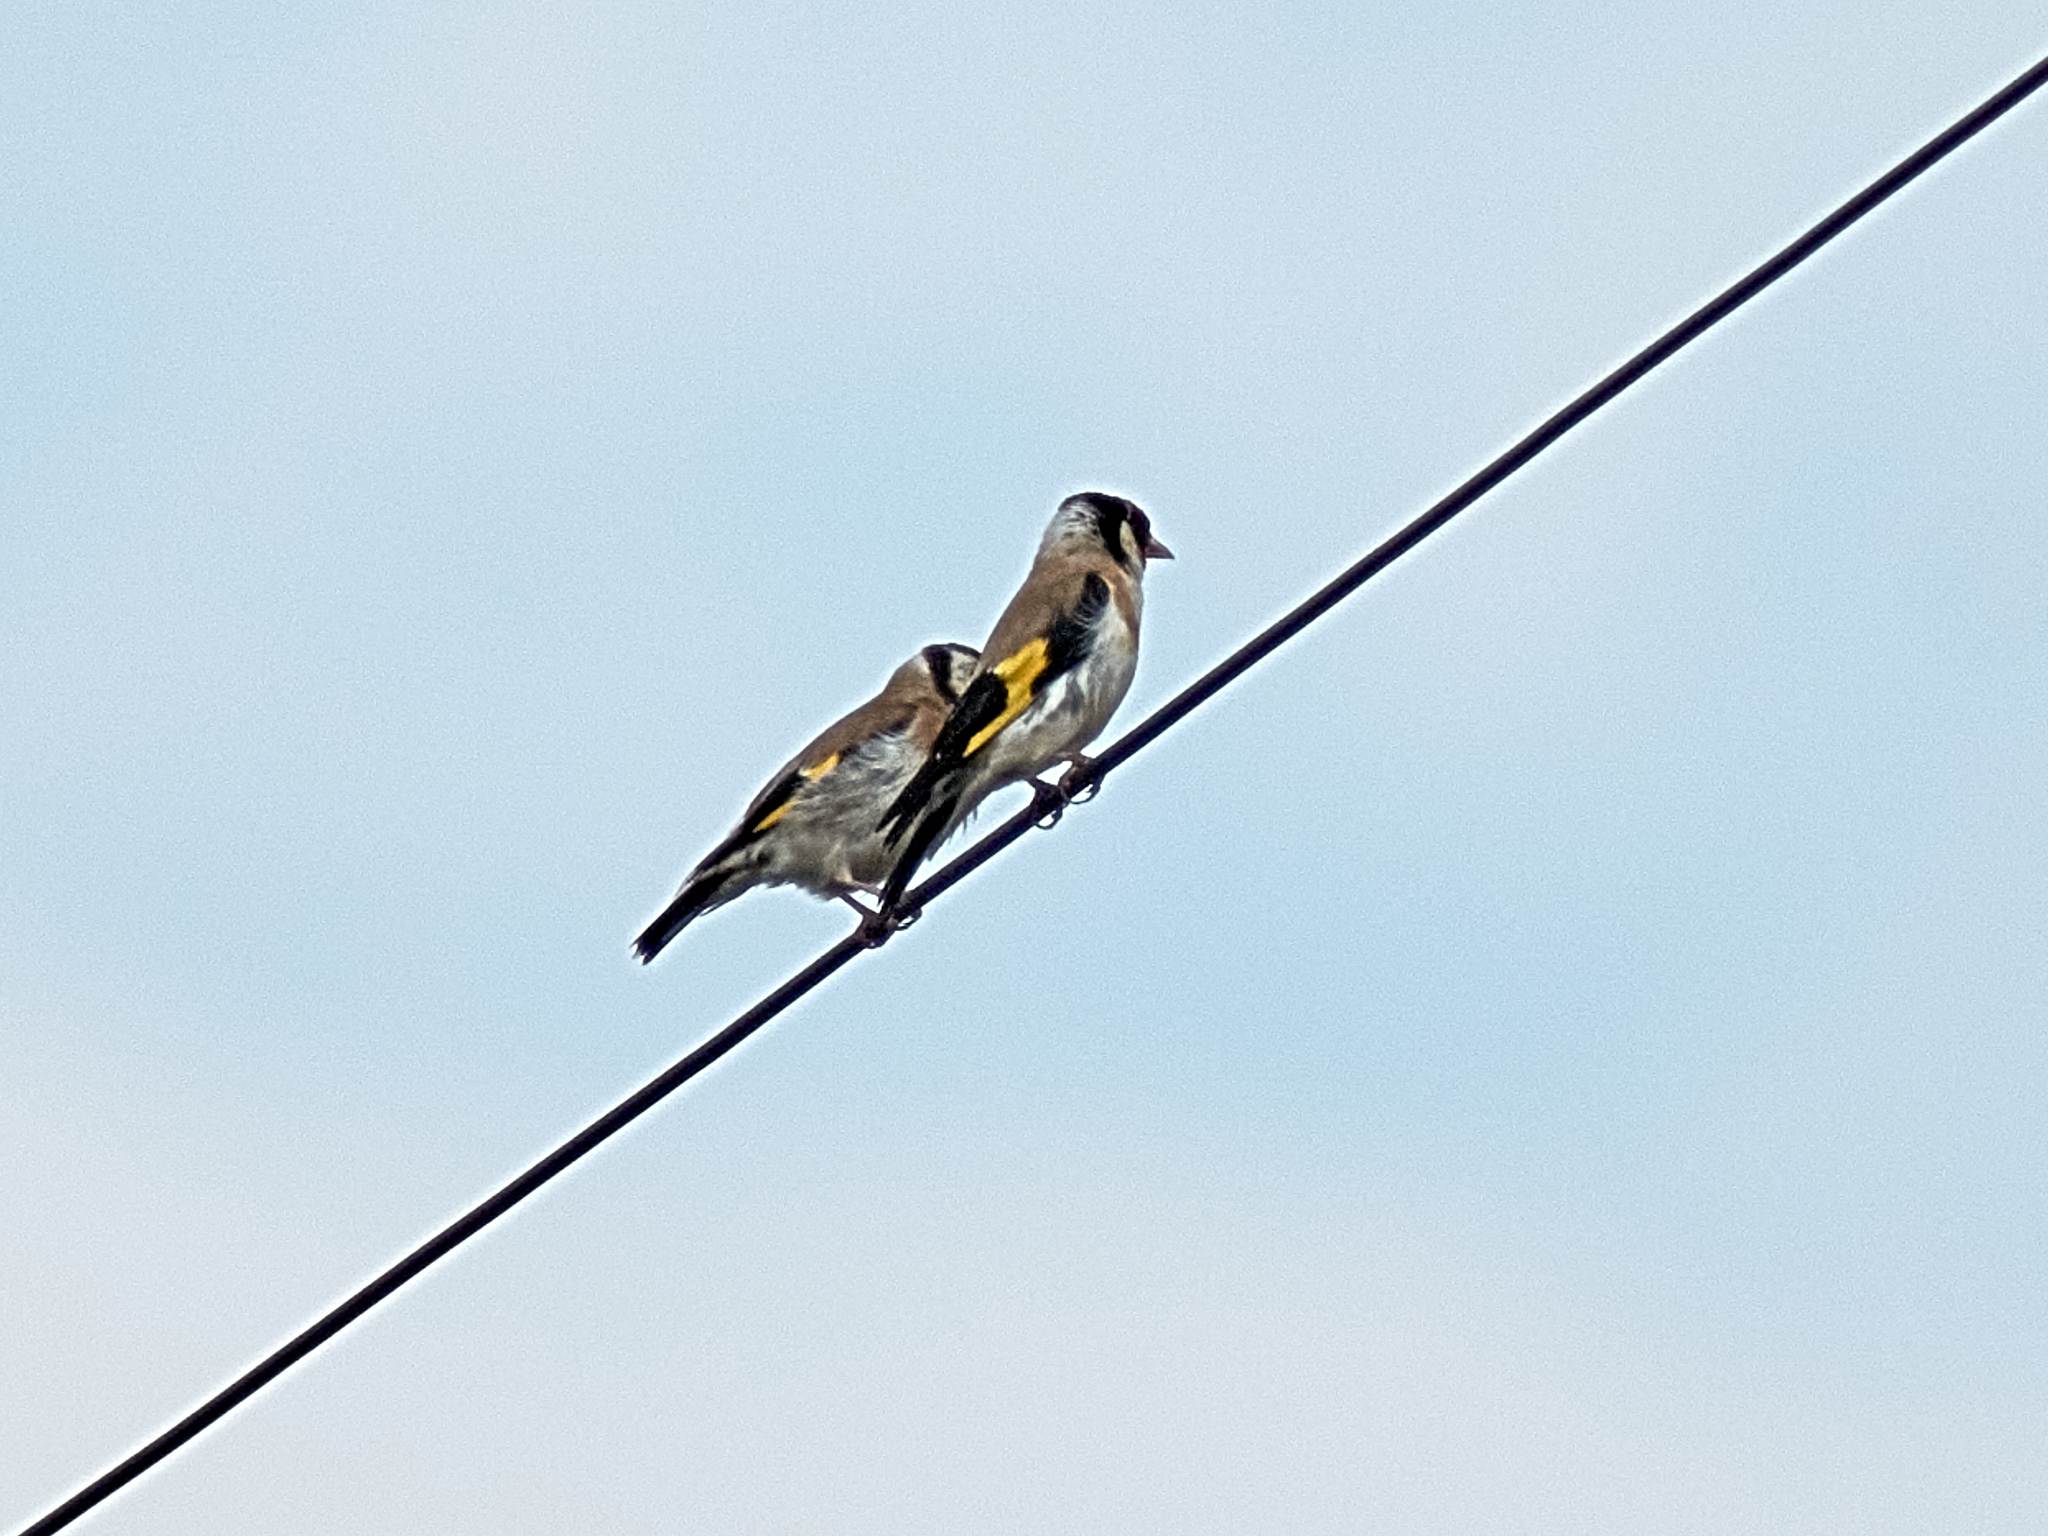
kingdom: Animalia
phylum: Chordata
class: Aves
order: Passeriformes
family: Fringillidae
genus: Carduelis
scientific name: Carduelis carduelis
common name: European goldfinch
